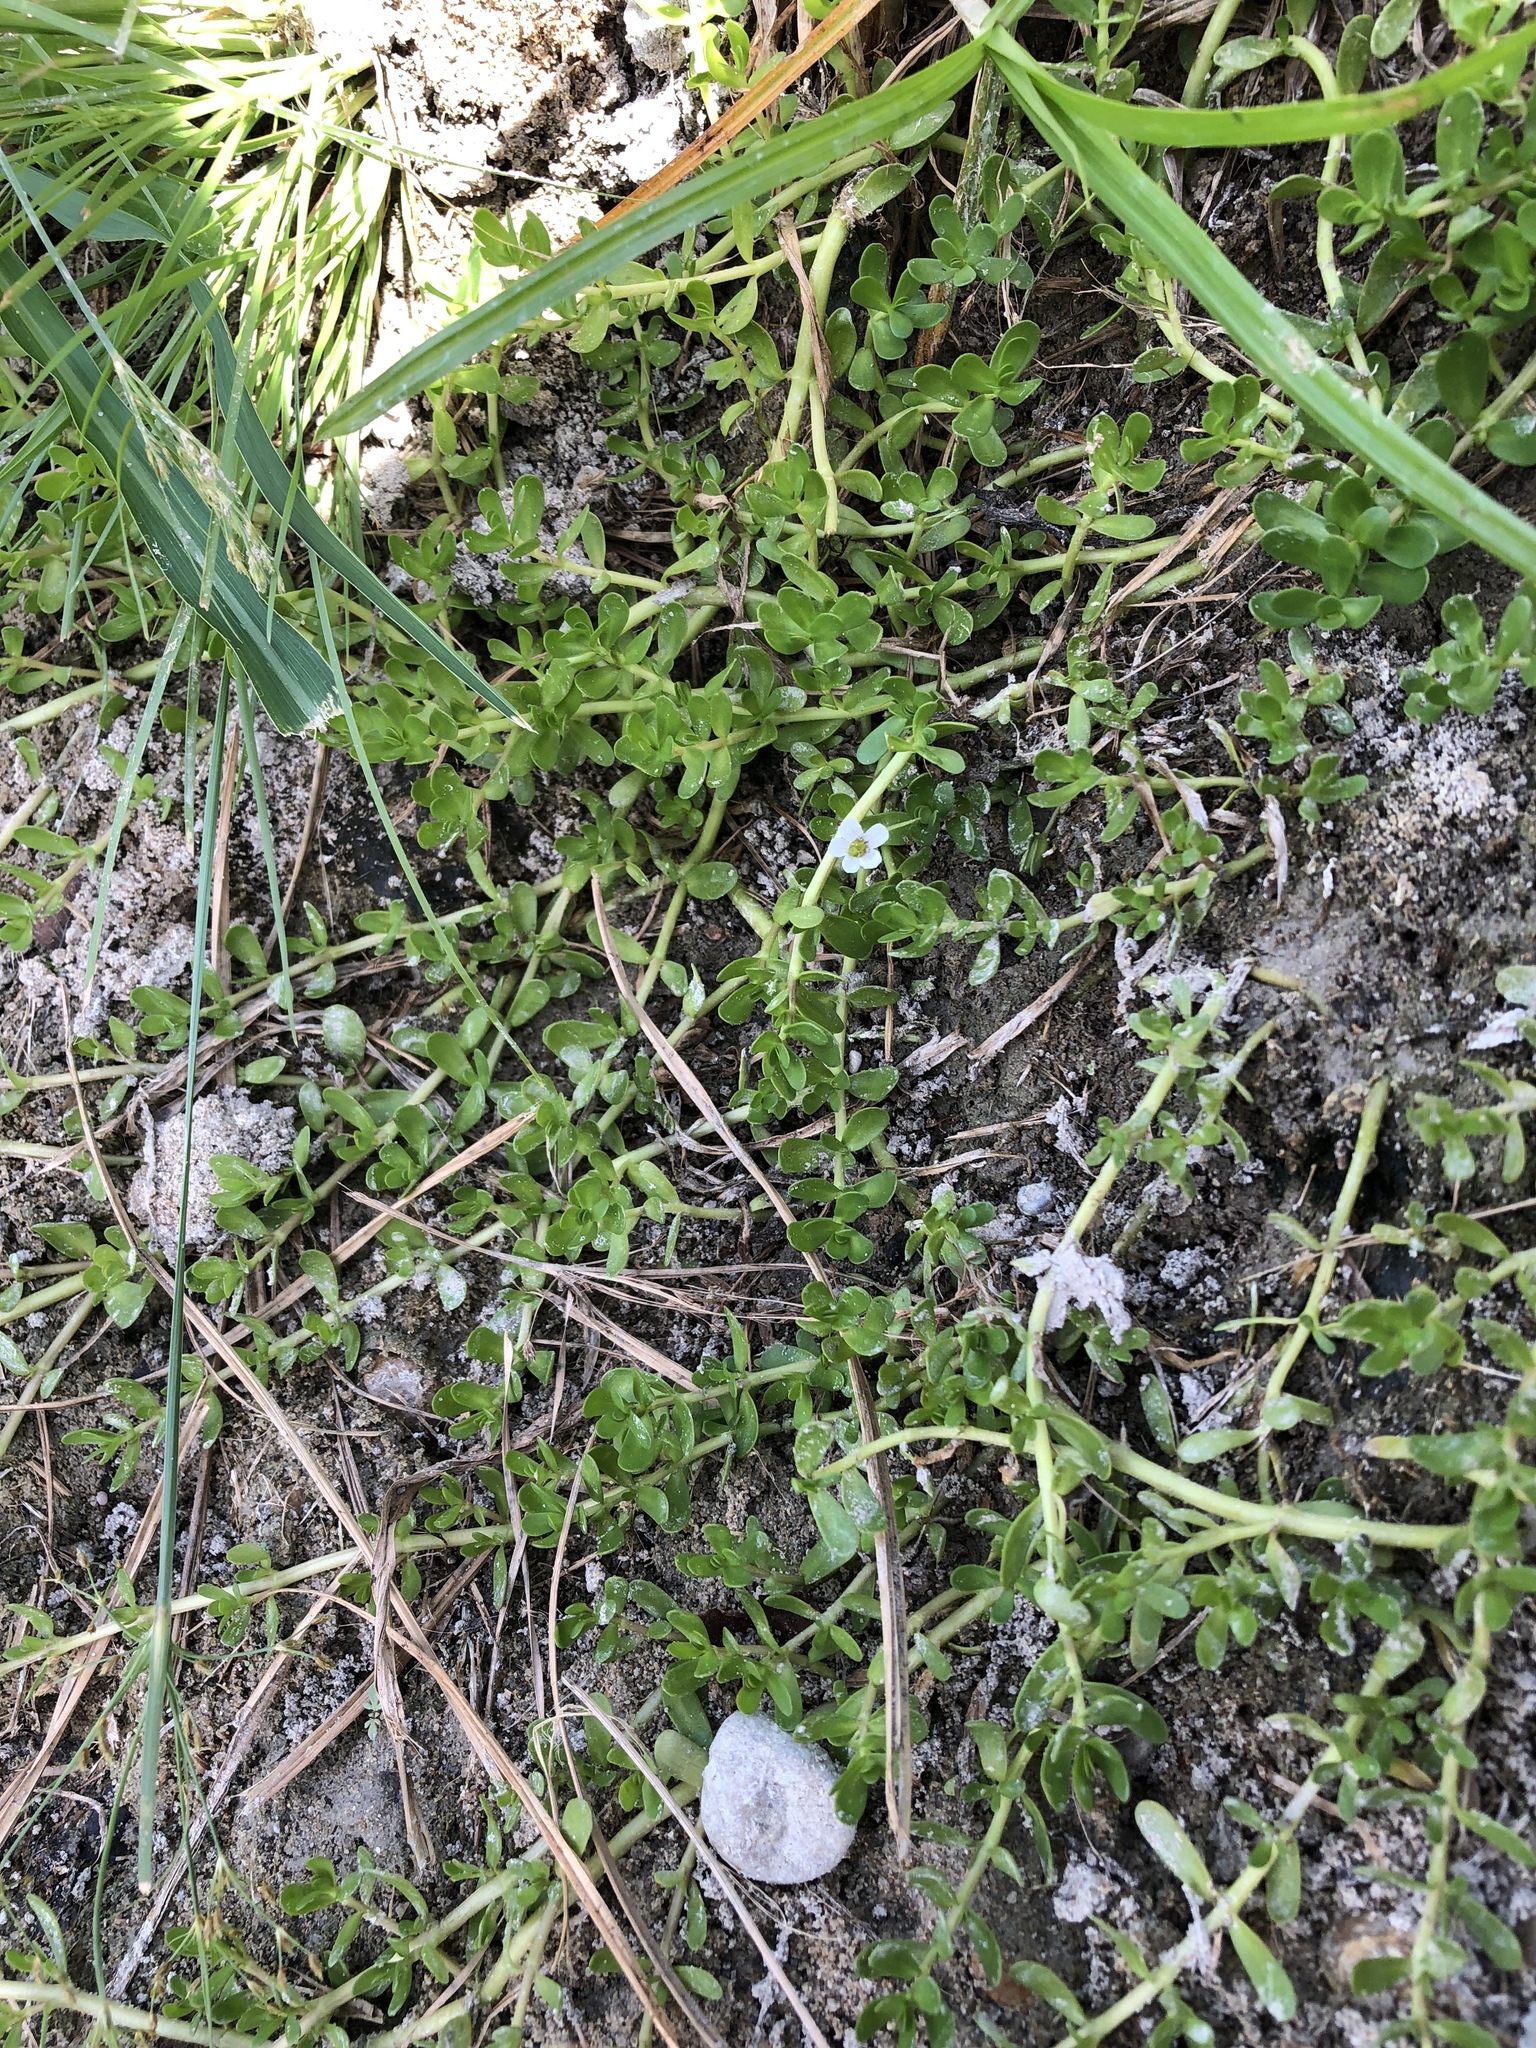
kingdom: Plantae
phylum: Tracheophyta
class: Magnoliopsida
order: Lamiales
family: Plantaginaceae
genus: Bacopa
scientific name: Bacopa monnieri
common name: Indian-pennywort
